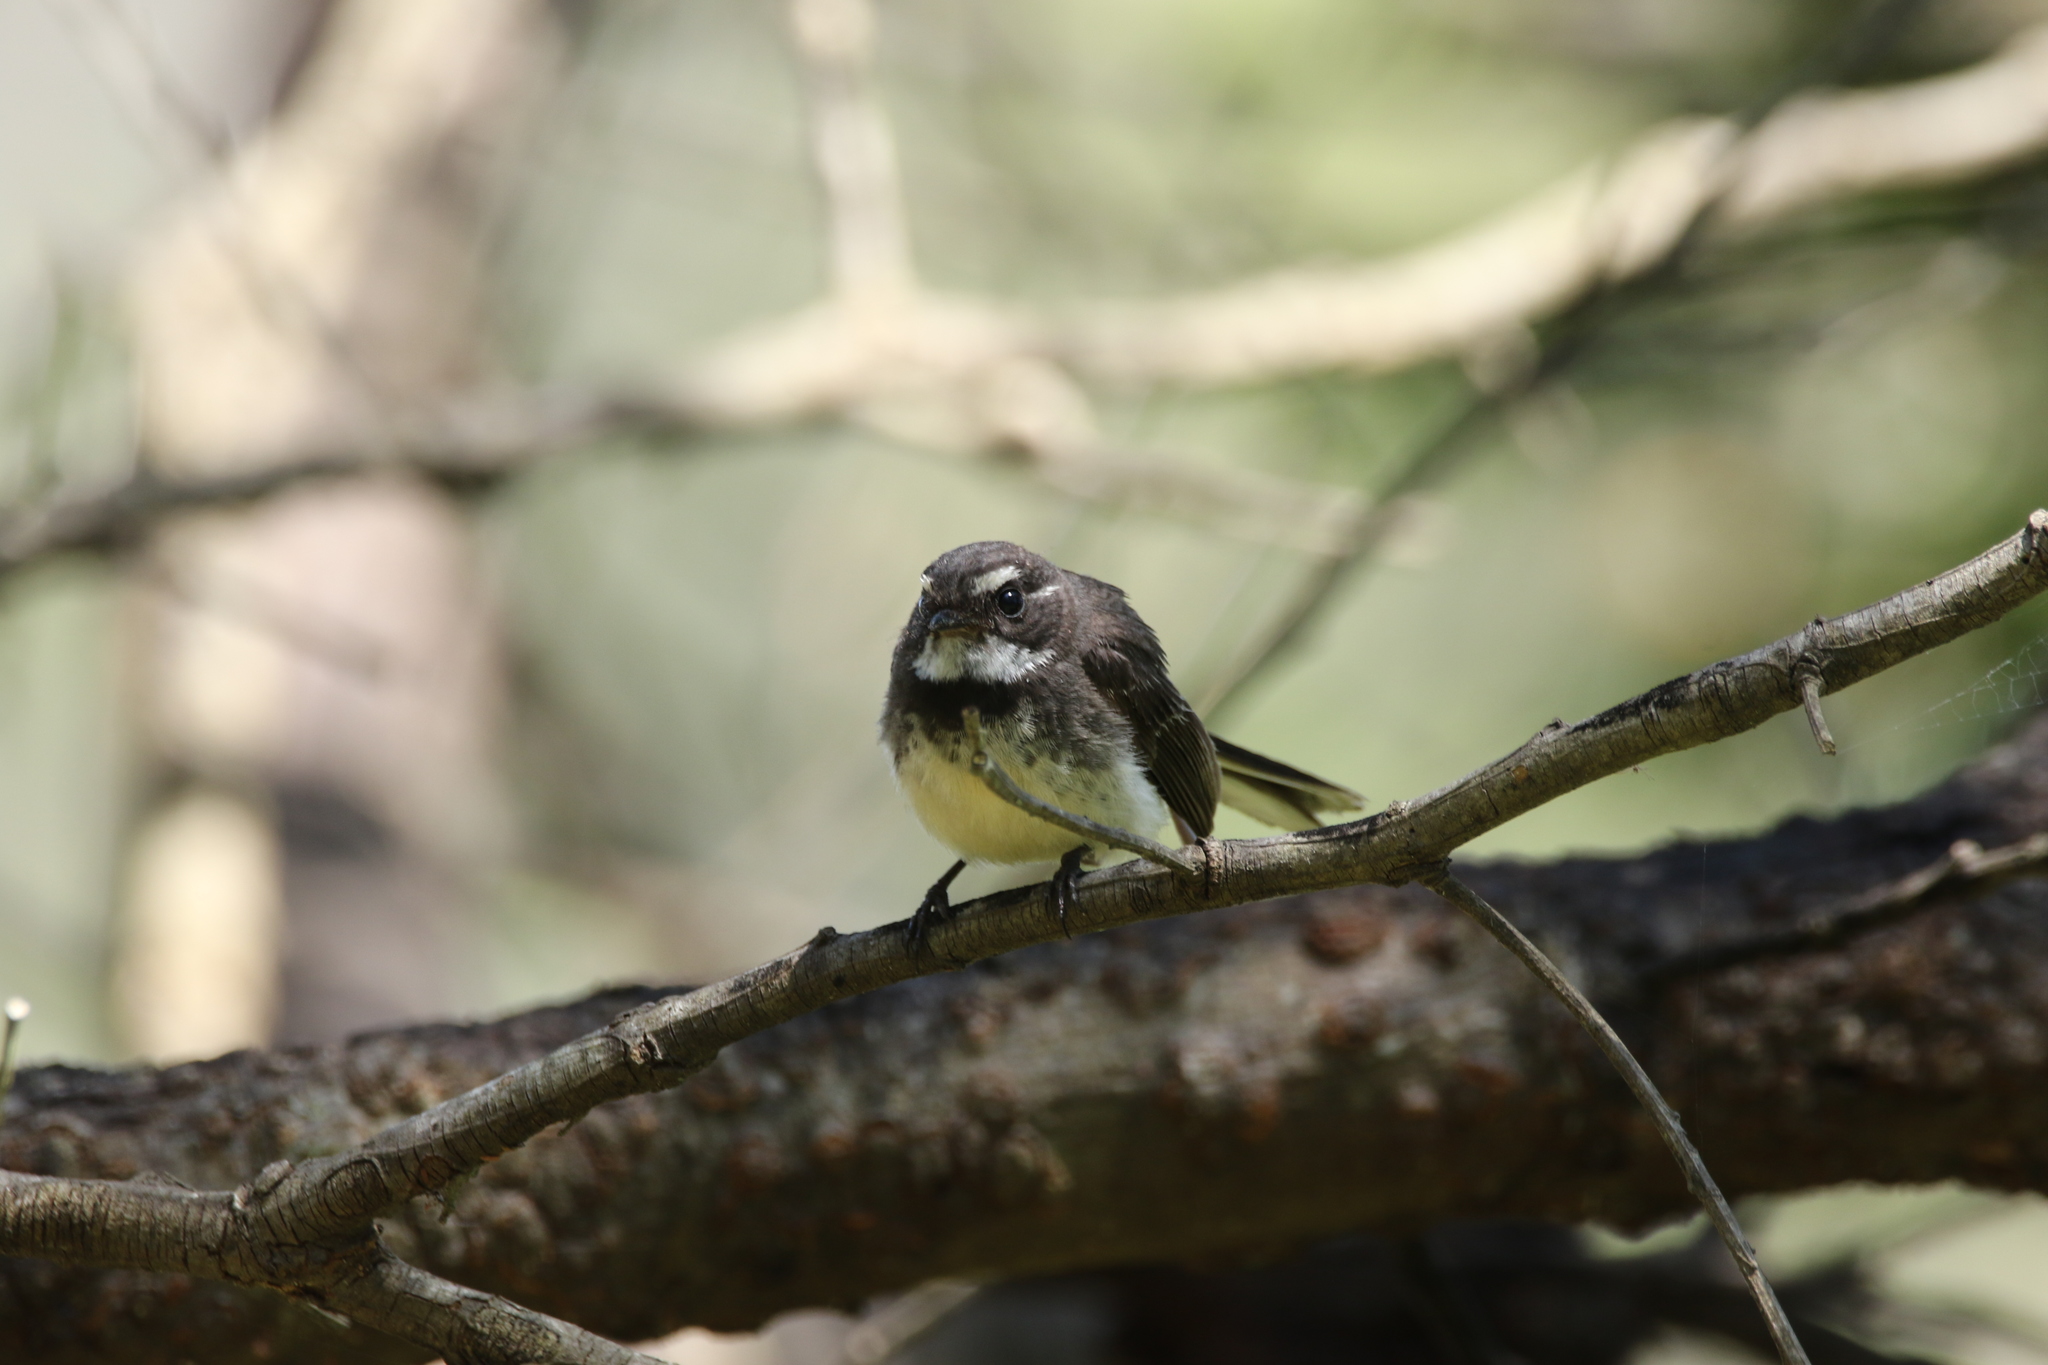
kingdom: Animalia
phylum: Chordata
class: Aves
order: Passeriformes
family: Rhipiduridae
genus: Rhipidura
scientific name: Rhipidura albiscapa
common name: Grey fantail
